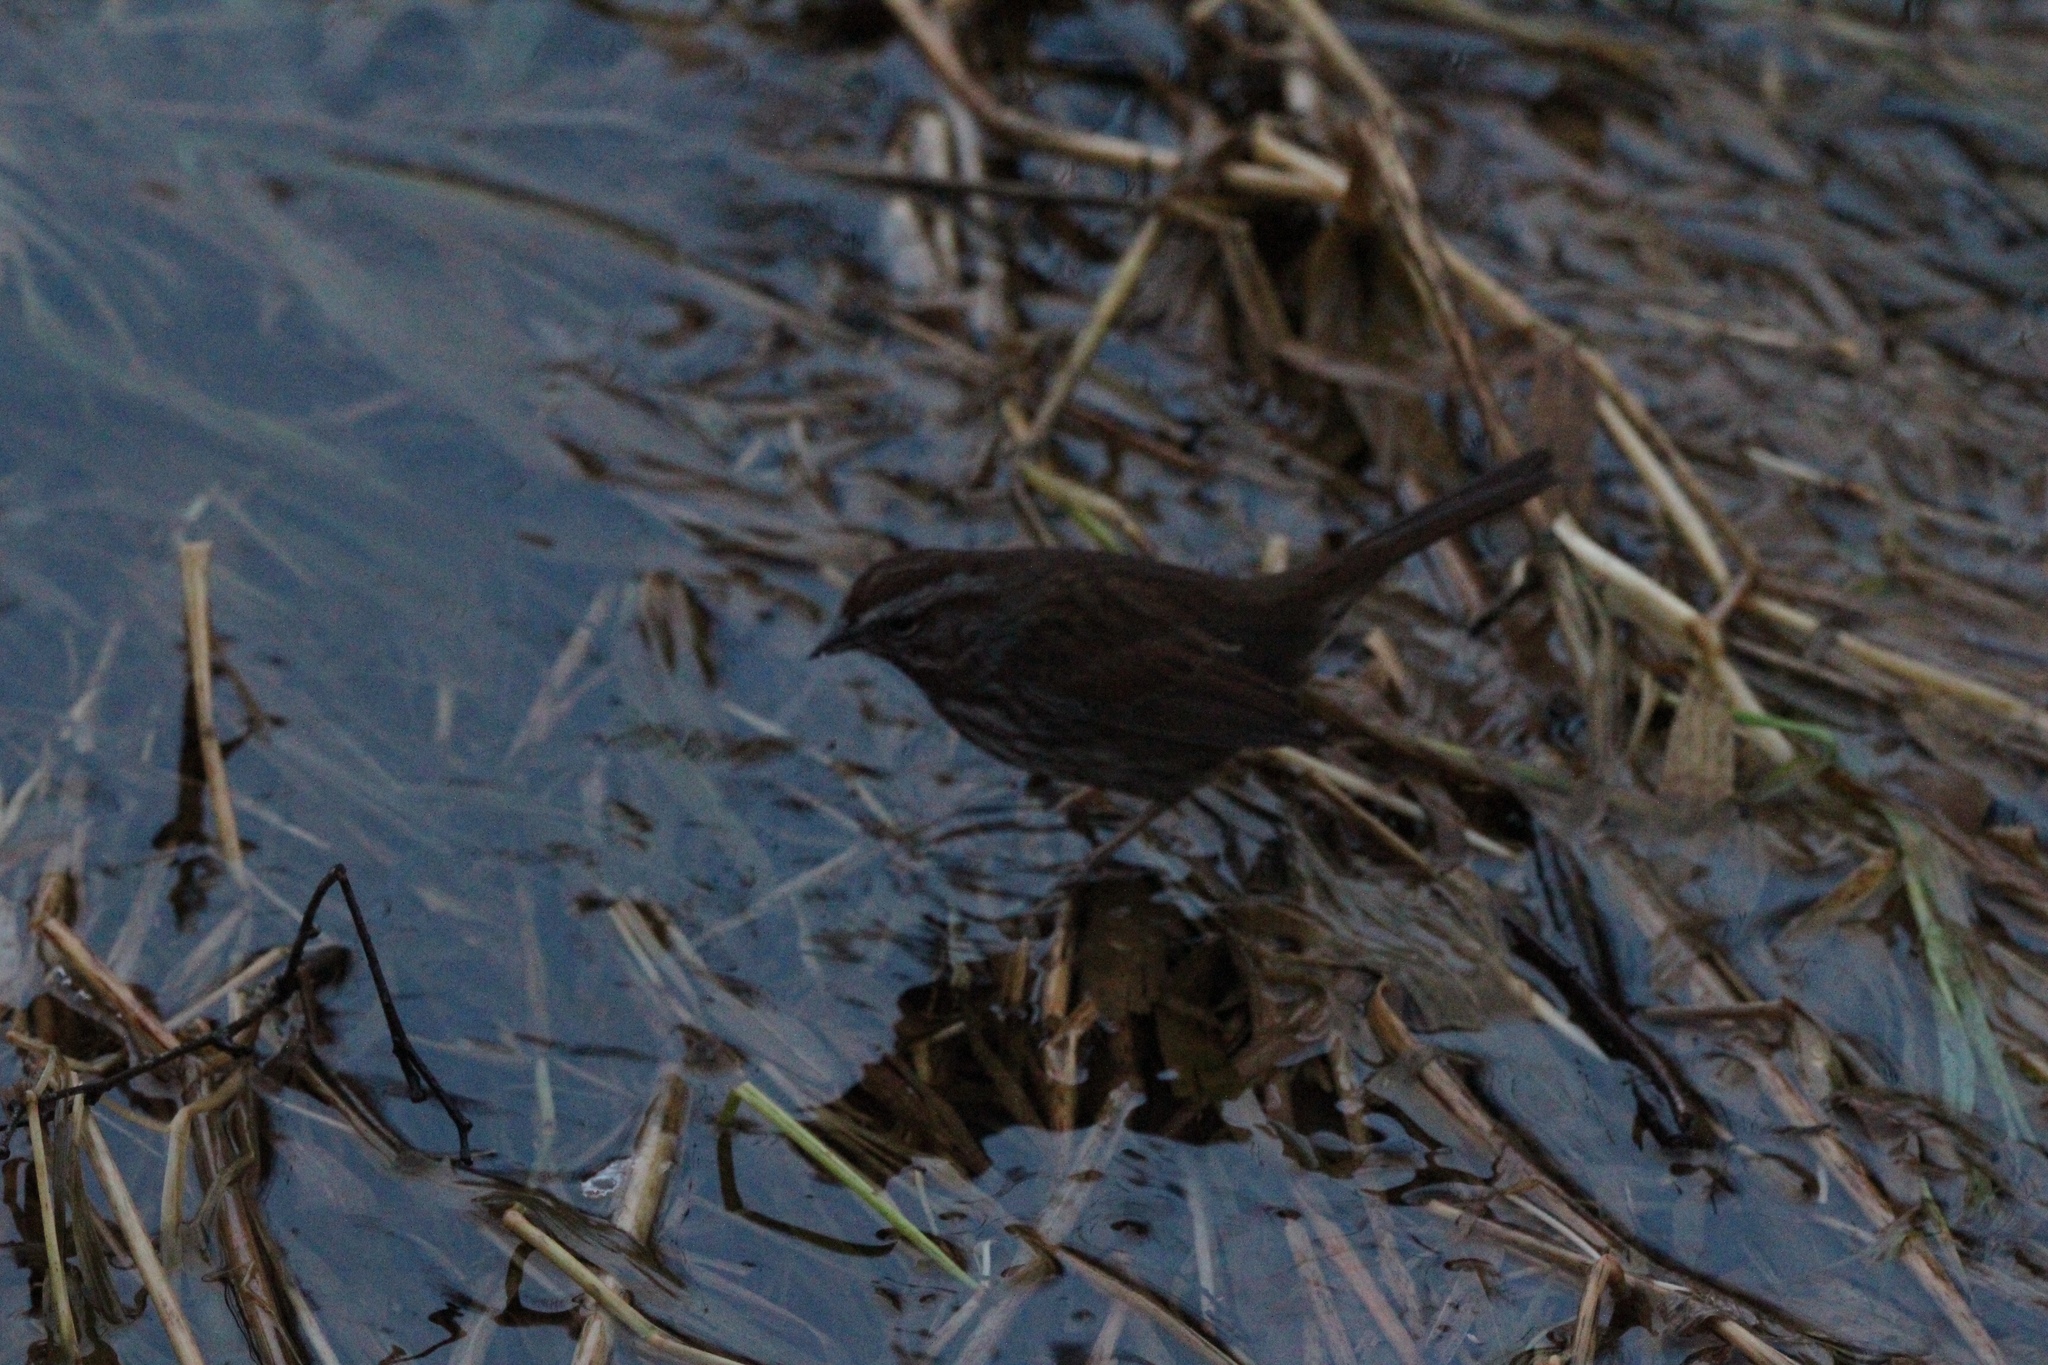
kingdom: Animalia
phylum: Chordata
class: Aves
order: Passeriformes
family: Passerellidae
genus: Melospiza
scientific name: Melospiza melodia
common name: Song sparrow
